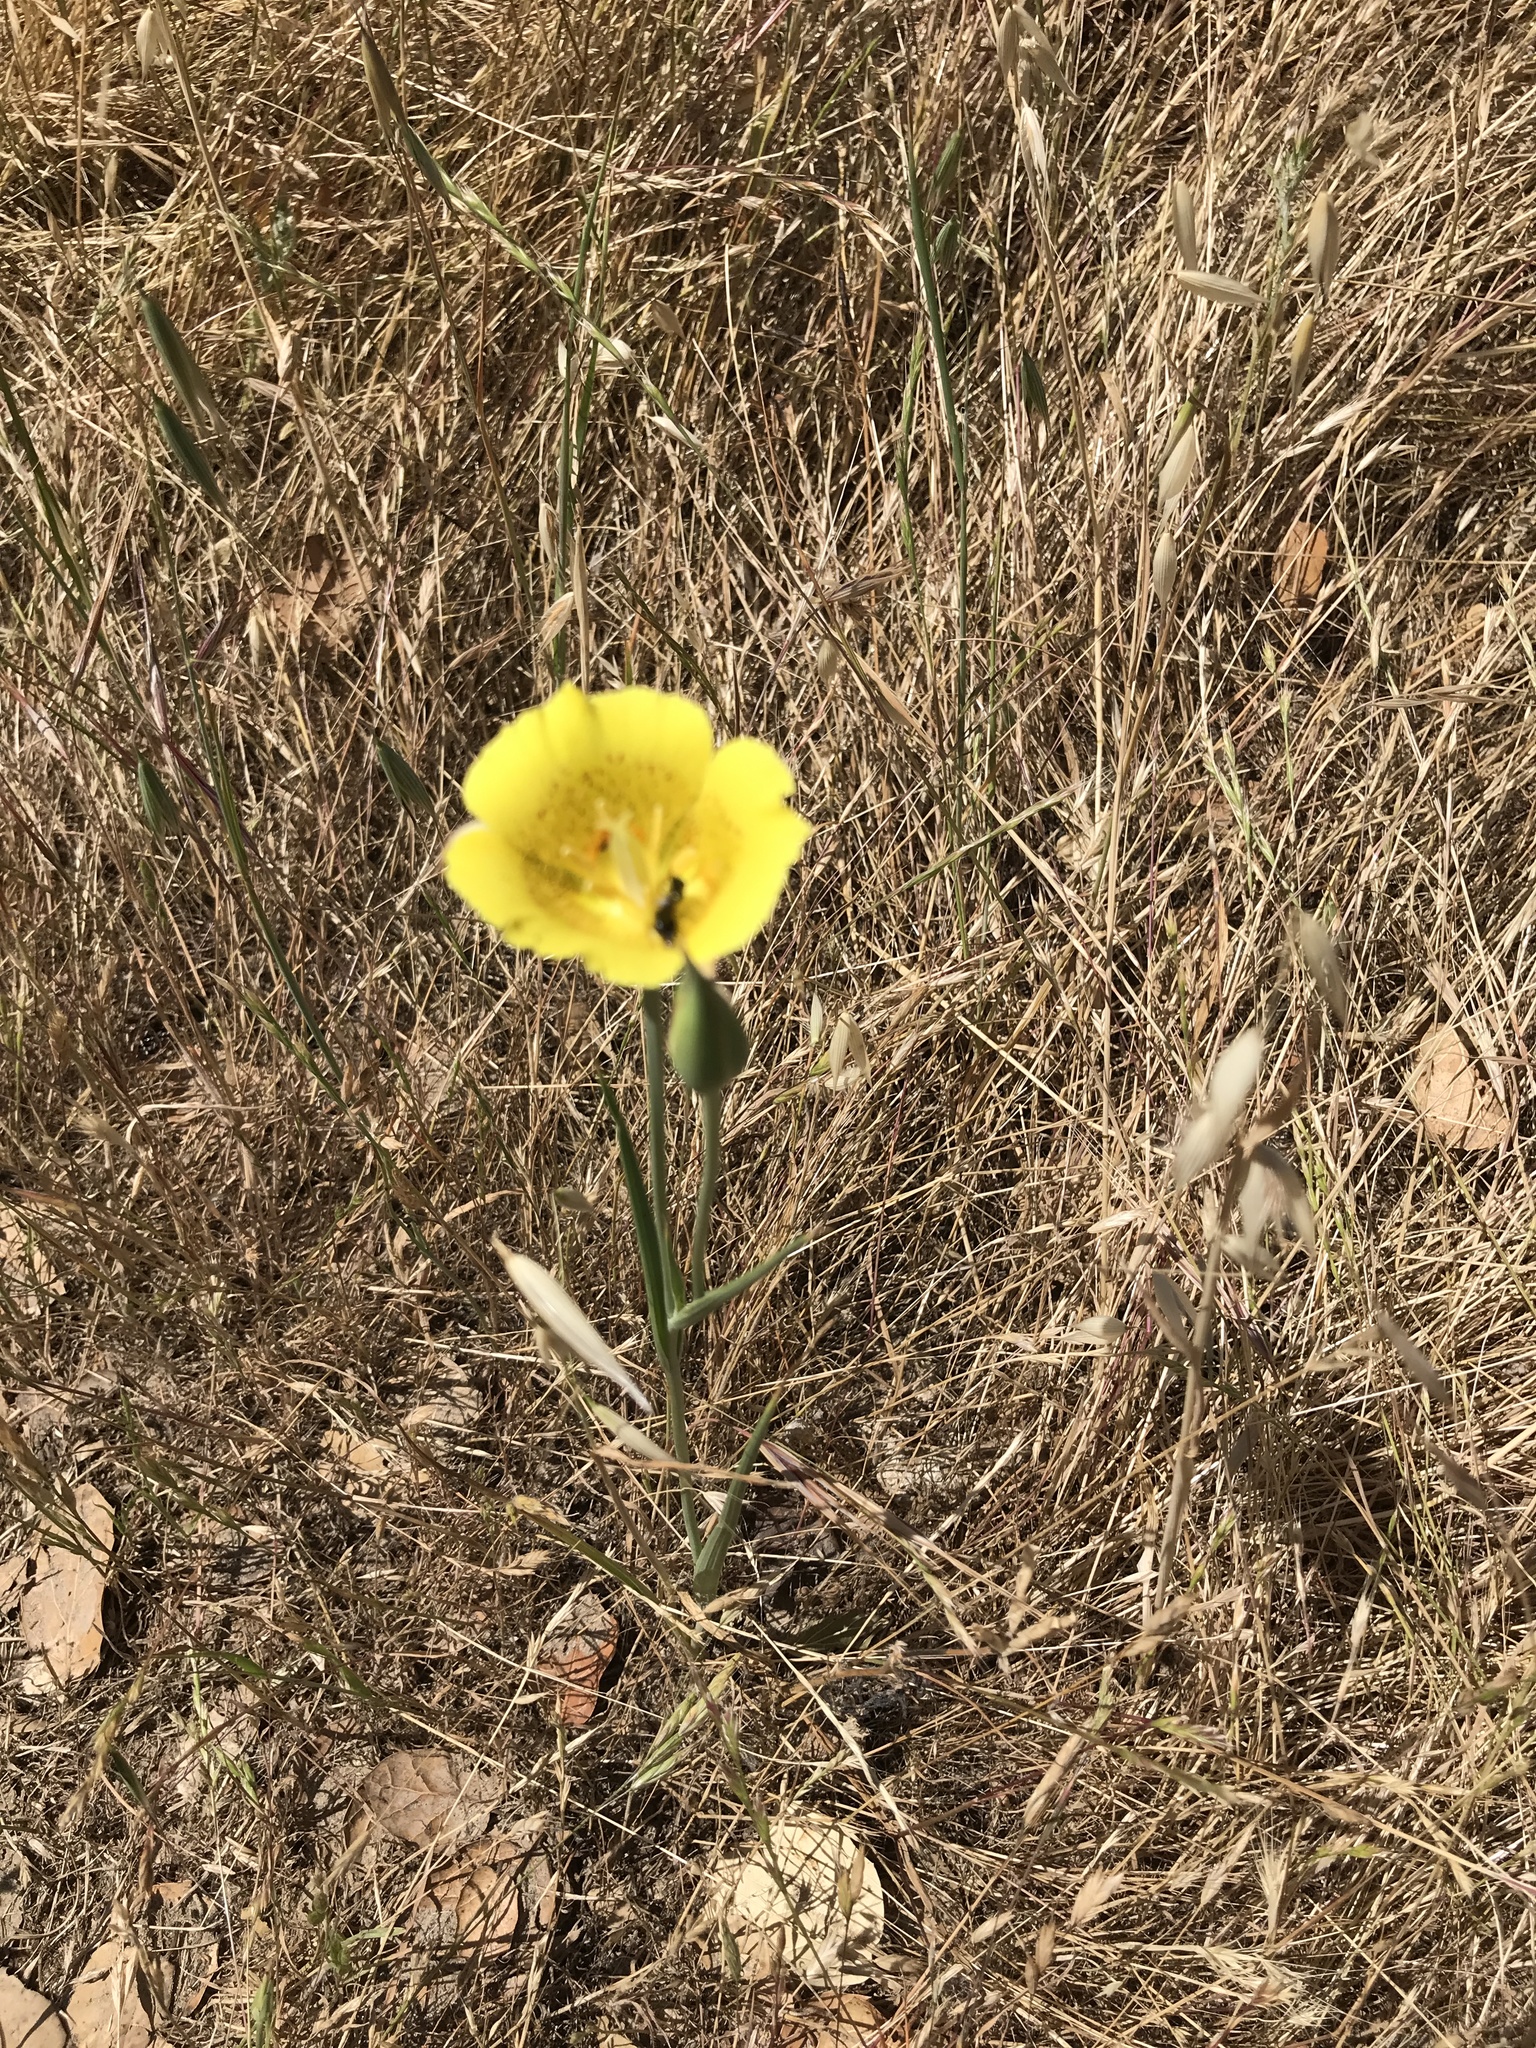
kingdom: Plantae
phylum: Tracheophyta
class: Liliopsida
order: Liliales
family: Liliaceae
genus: Calochortus
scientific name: Calochortus luteus
